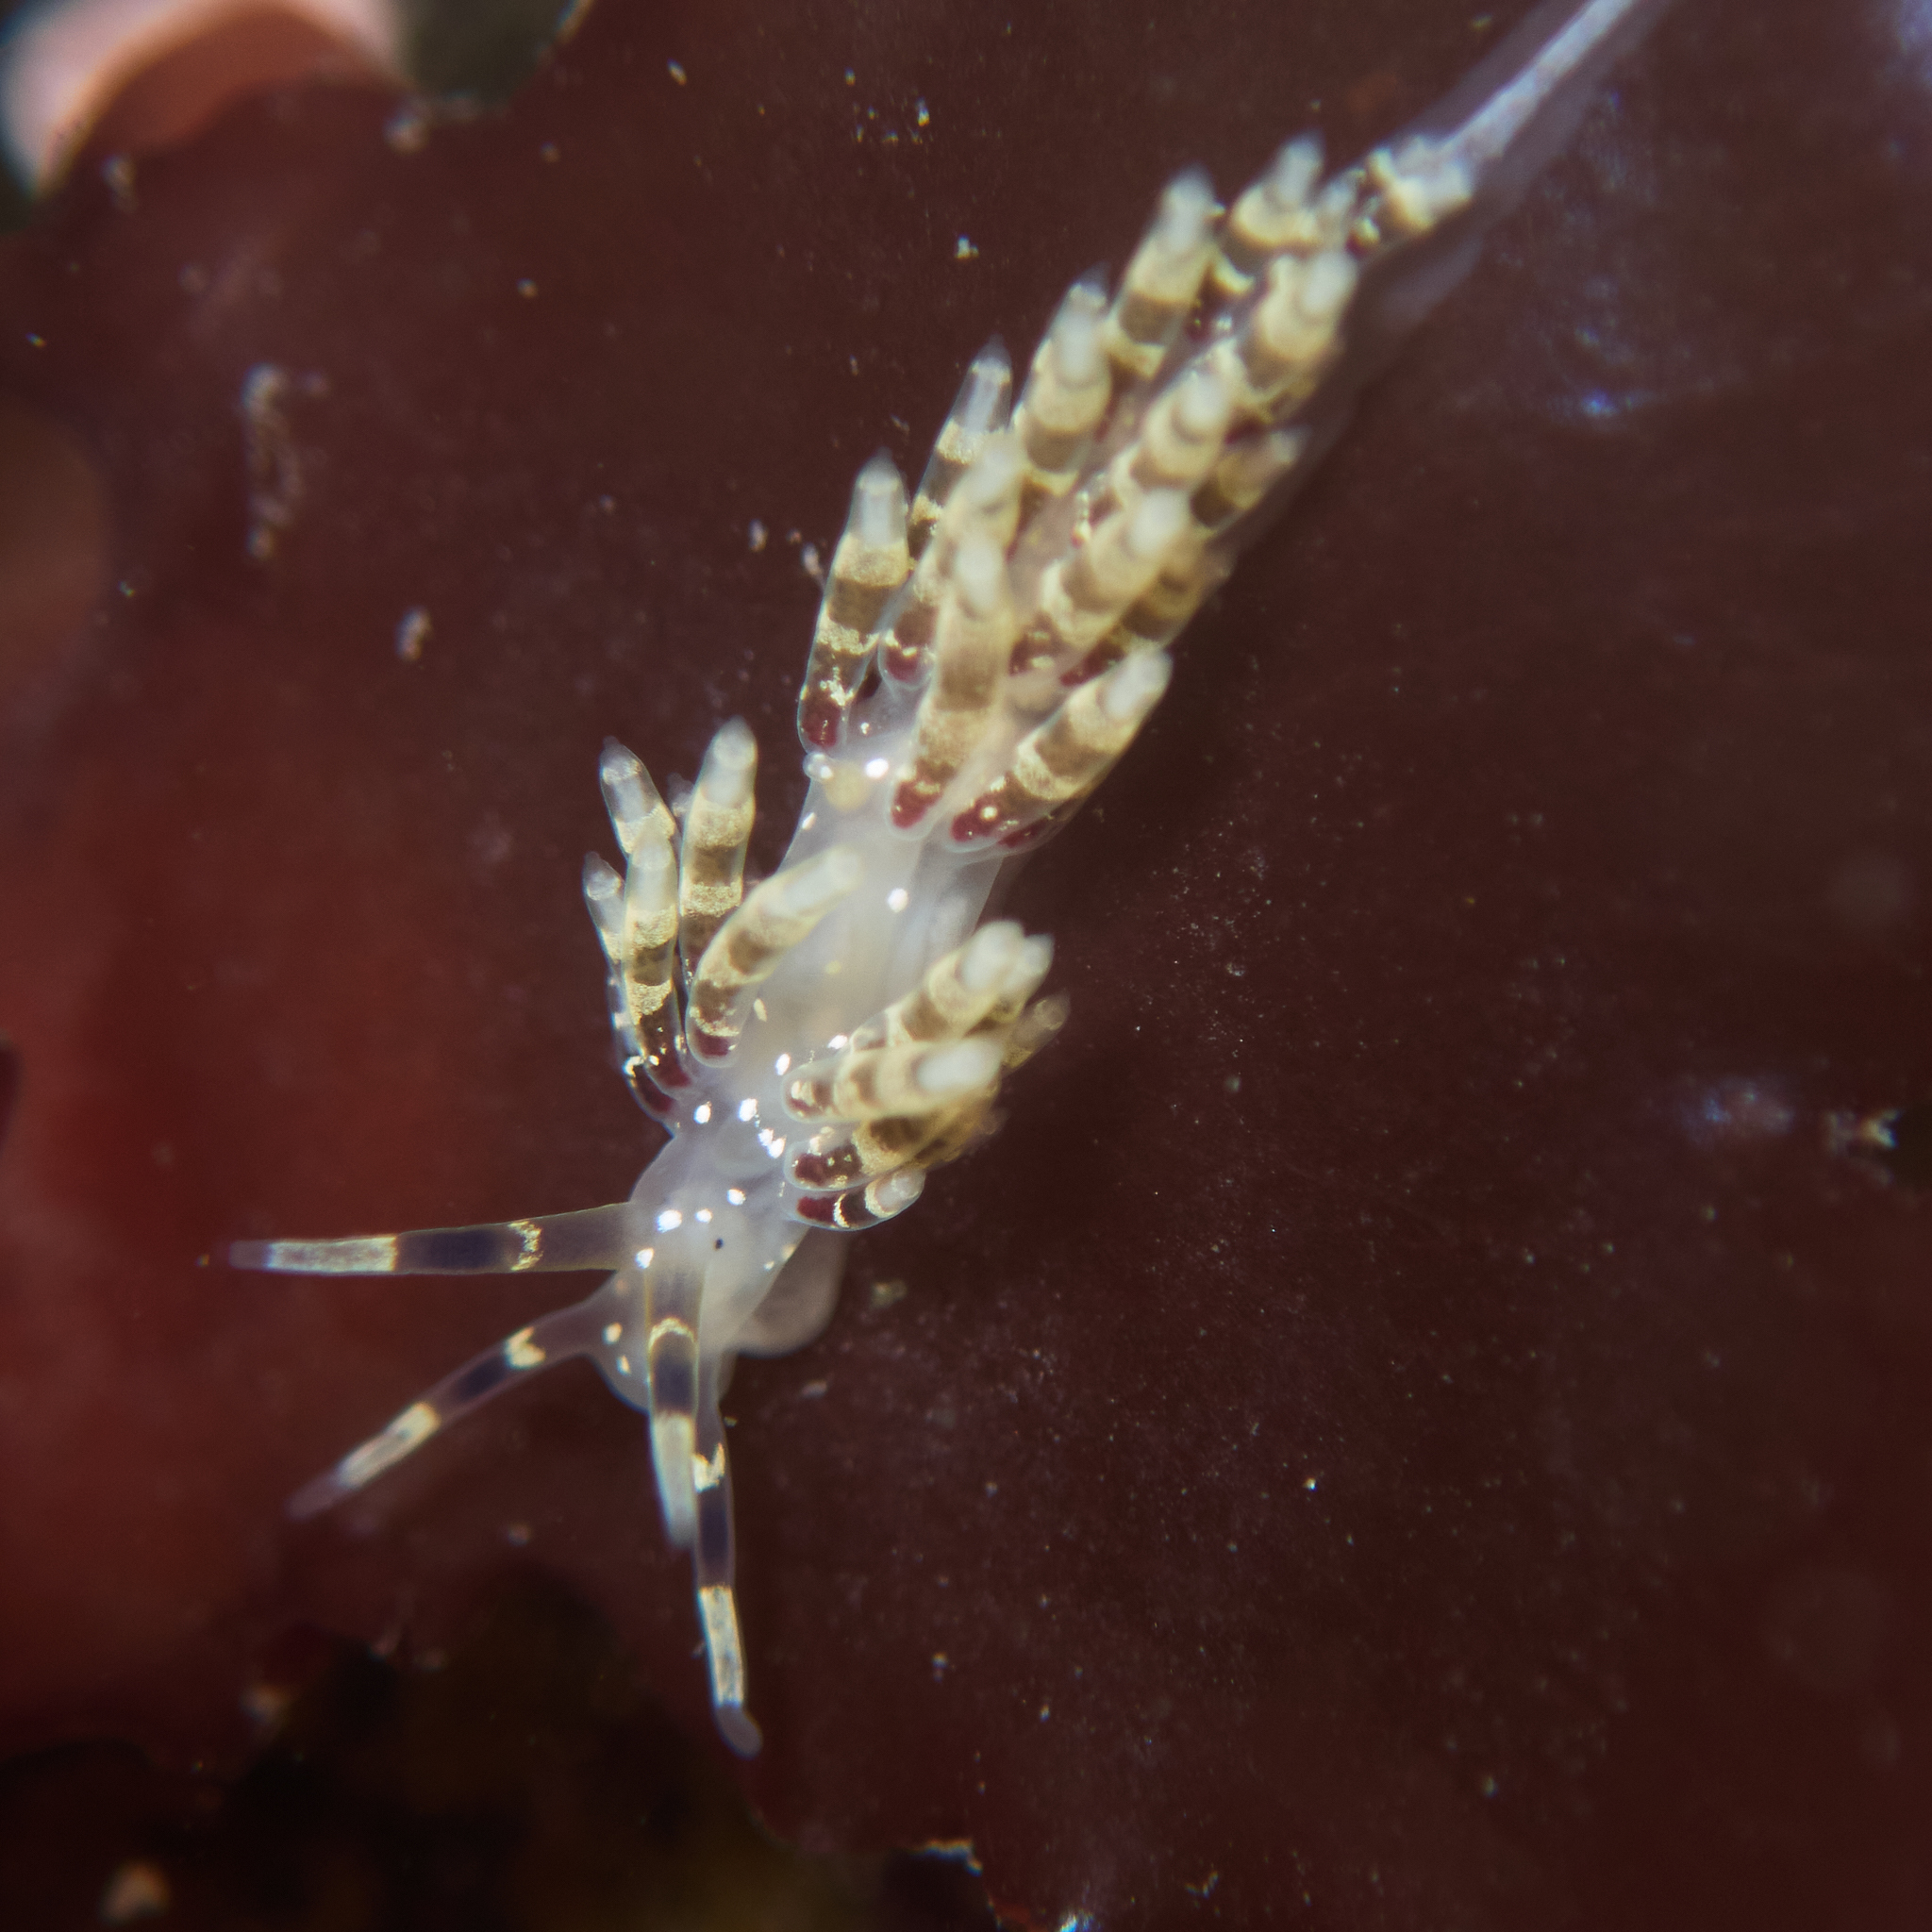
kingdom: Animalia
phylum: Mollusca
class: Gastropoda
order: Nudibranchia
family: Abronicidae
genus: Abronica
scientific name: Abronica abronia
